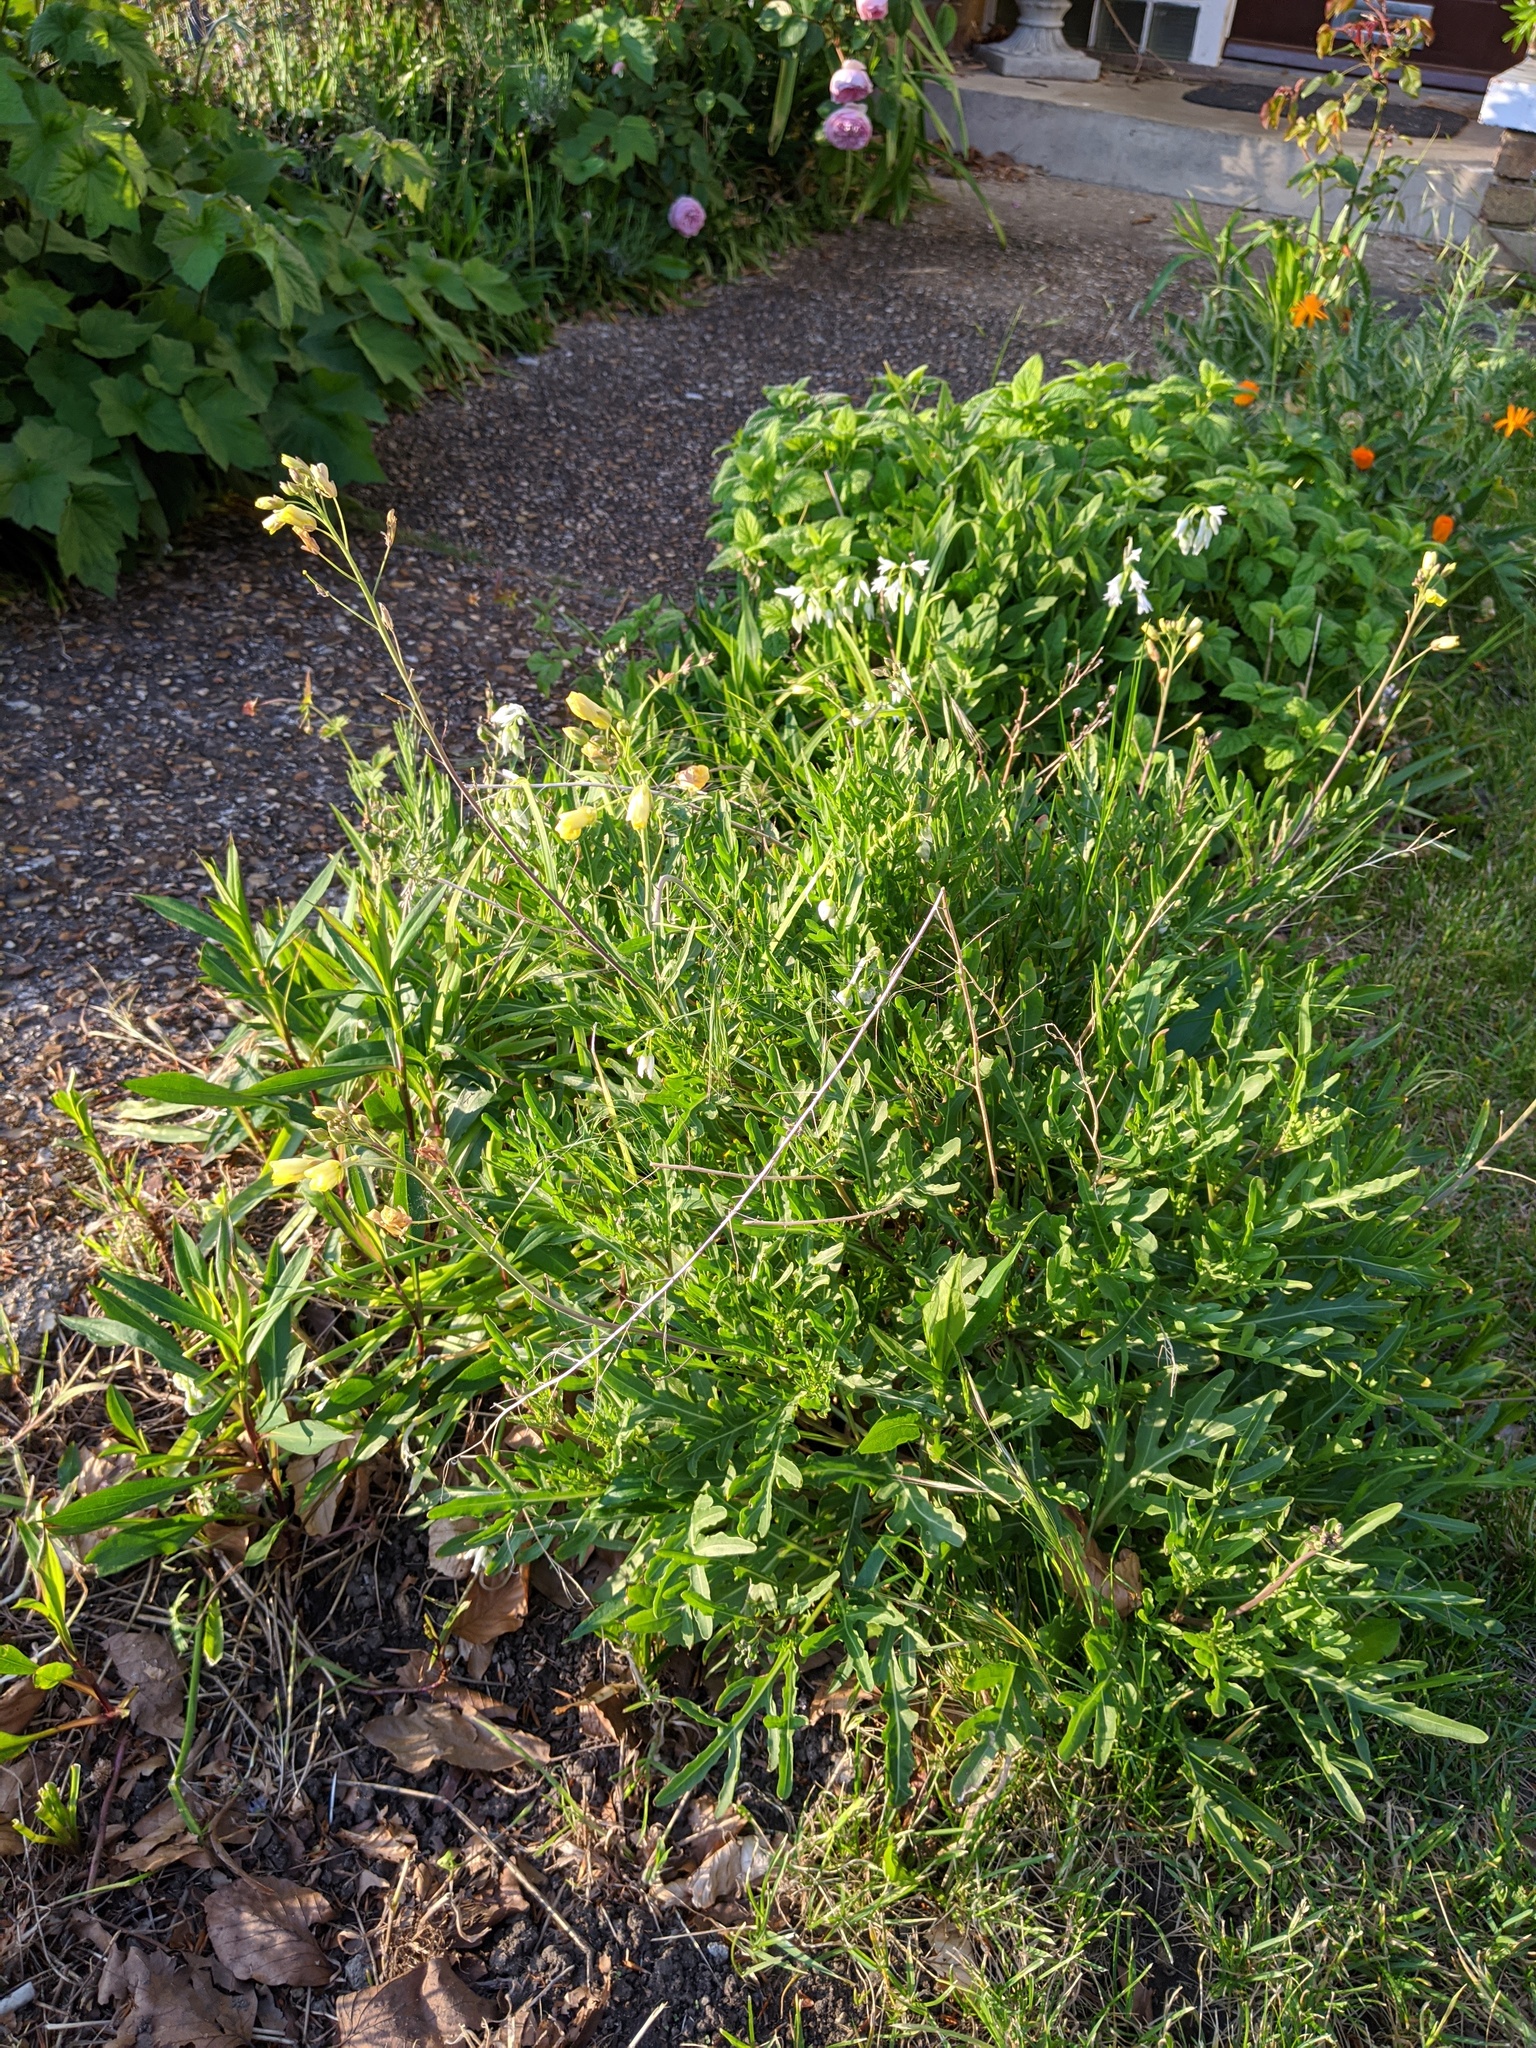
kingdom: Plantae
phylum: Tracheophyta
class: Magnoliopsida
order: Brassicales
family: Brassicaceae
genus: Diplotaxis
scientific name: Diplotaxis tenuifolia
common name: Perennial wall-rocket
